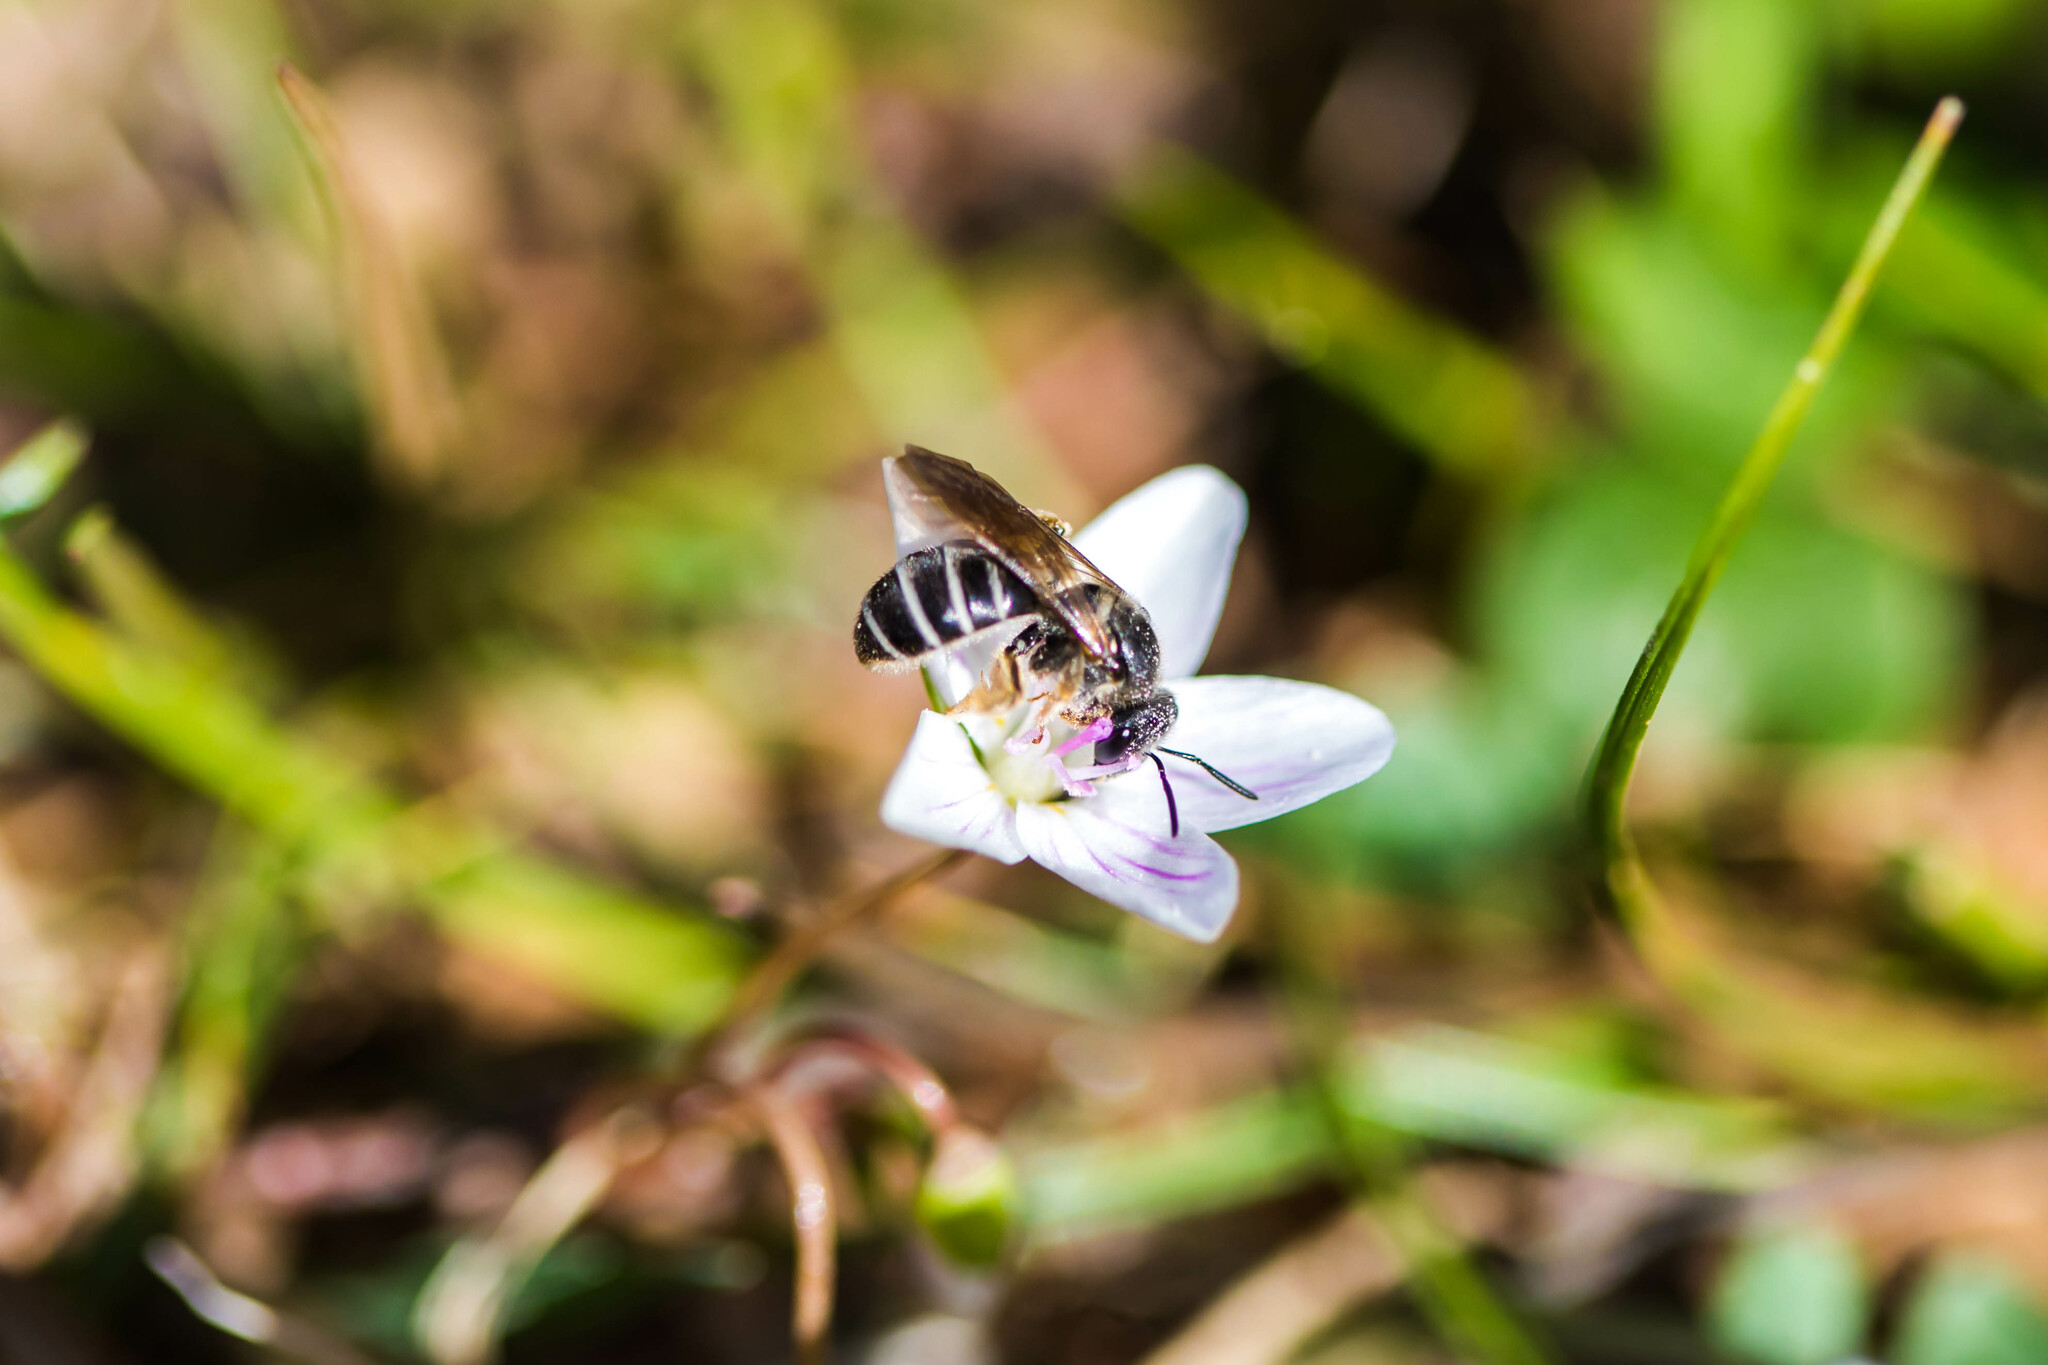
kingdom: Animalia
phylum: Arthropoda
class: Insecta
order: Hymenoptera
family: Halictidae
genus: Halictus
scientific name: Halictus rubicundus
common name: Orange-legged furrow bee
